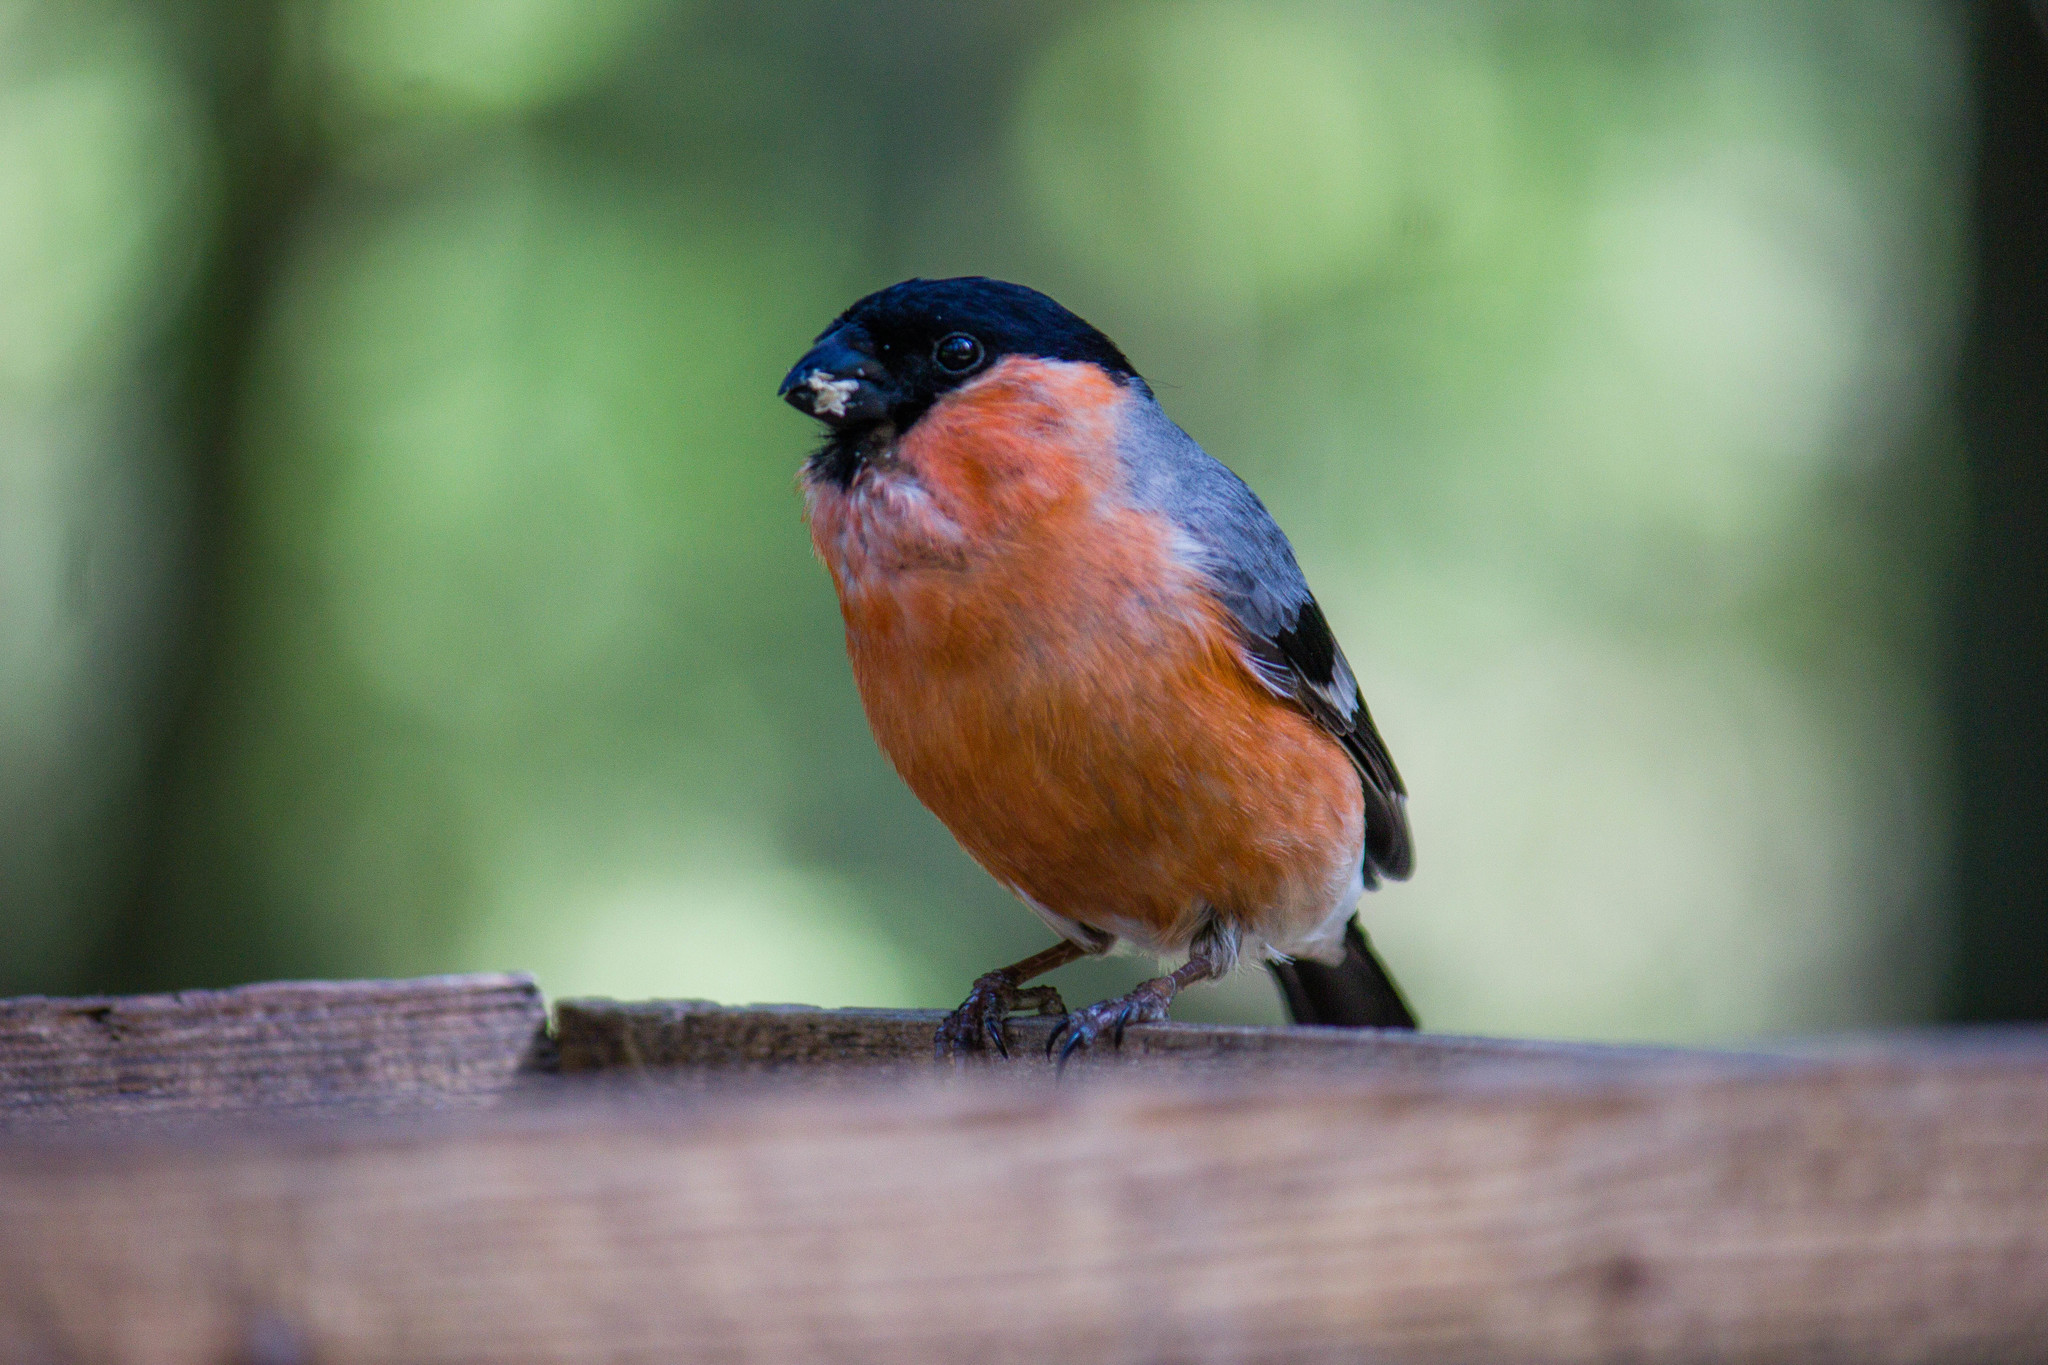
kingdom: Animalia
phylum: Chordata
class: Aves
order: Passeriformes
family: Fringillidae
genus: Pyrrhula
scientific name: Pyrrhula pyrrhula
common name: Eurasian bullfinch
